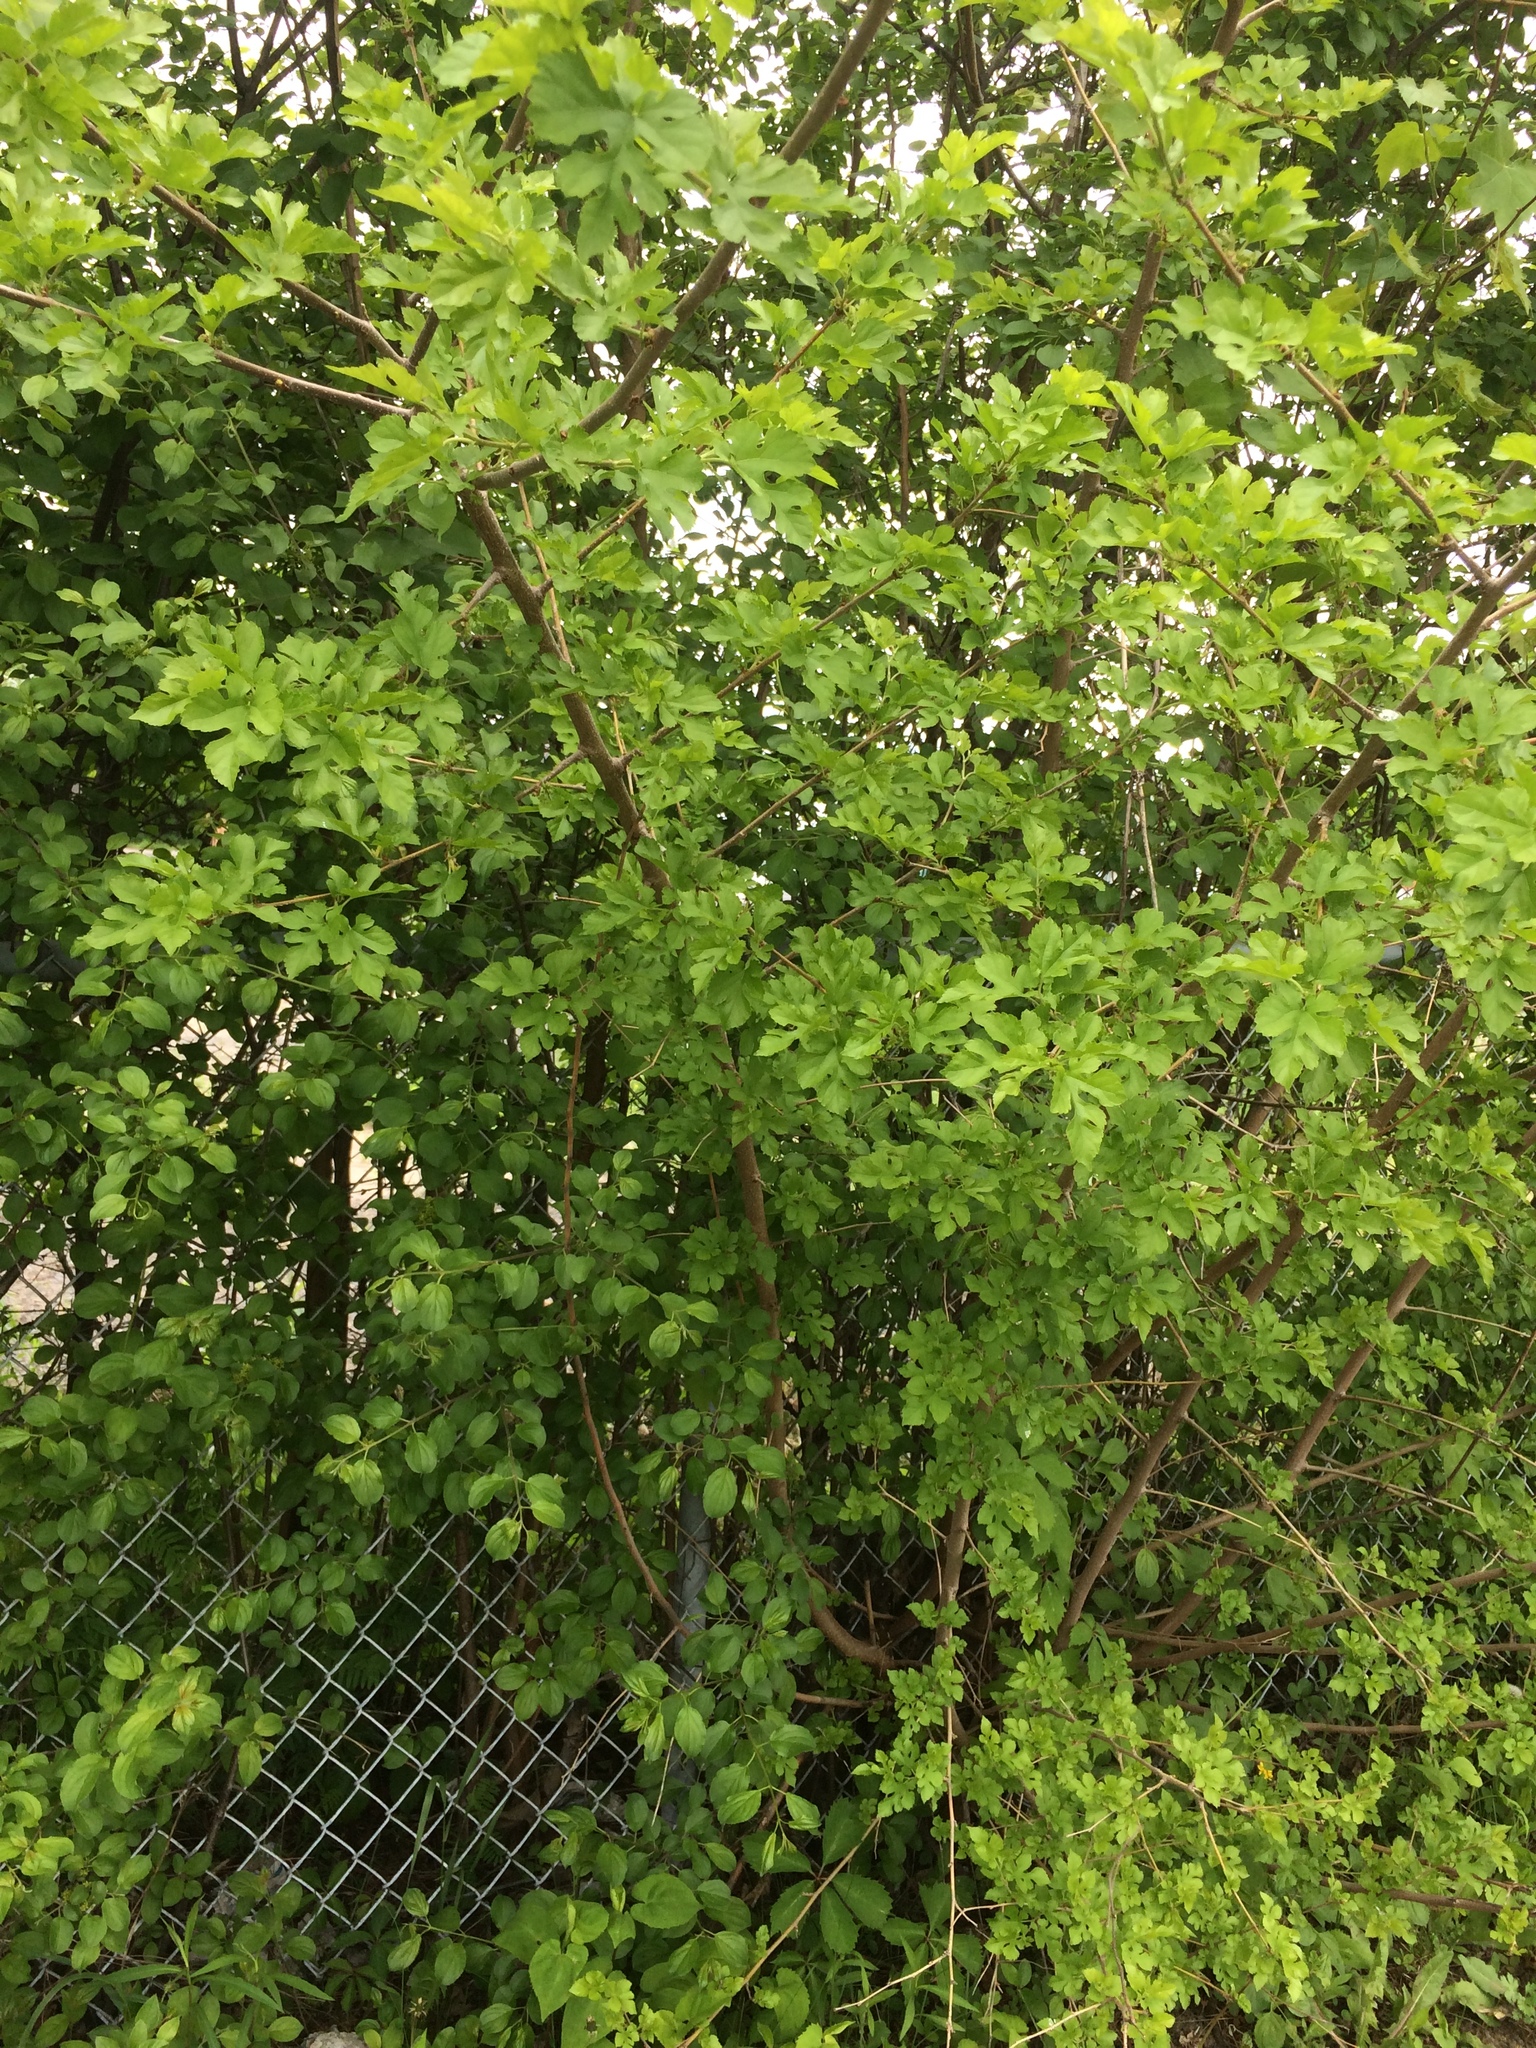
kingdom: Plantae
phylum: Tracheophyta
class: Magnoliopsida
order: Rosales
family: Moraceae
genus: Morus
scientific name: Morus alba
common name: White mulberry
